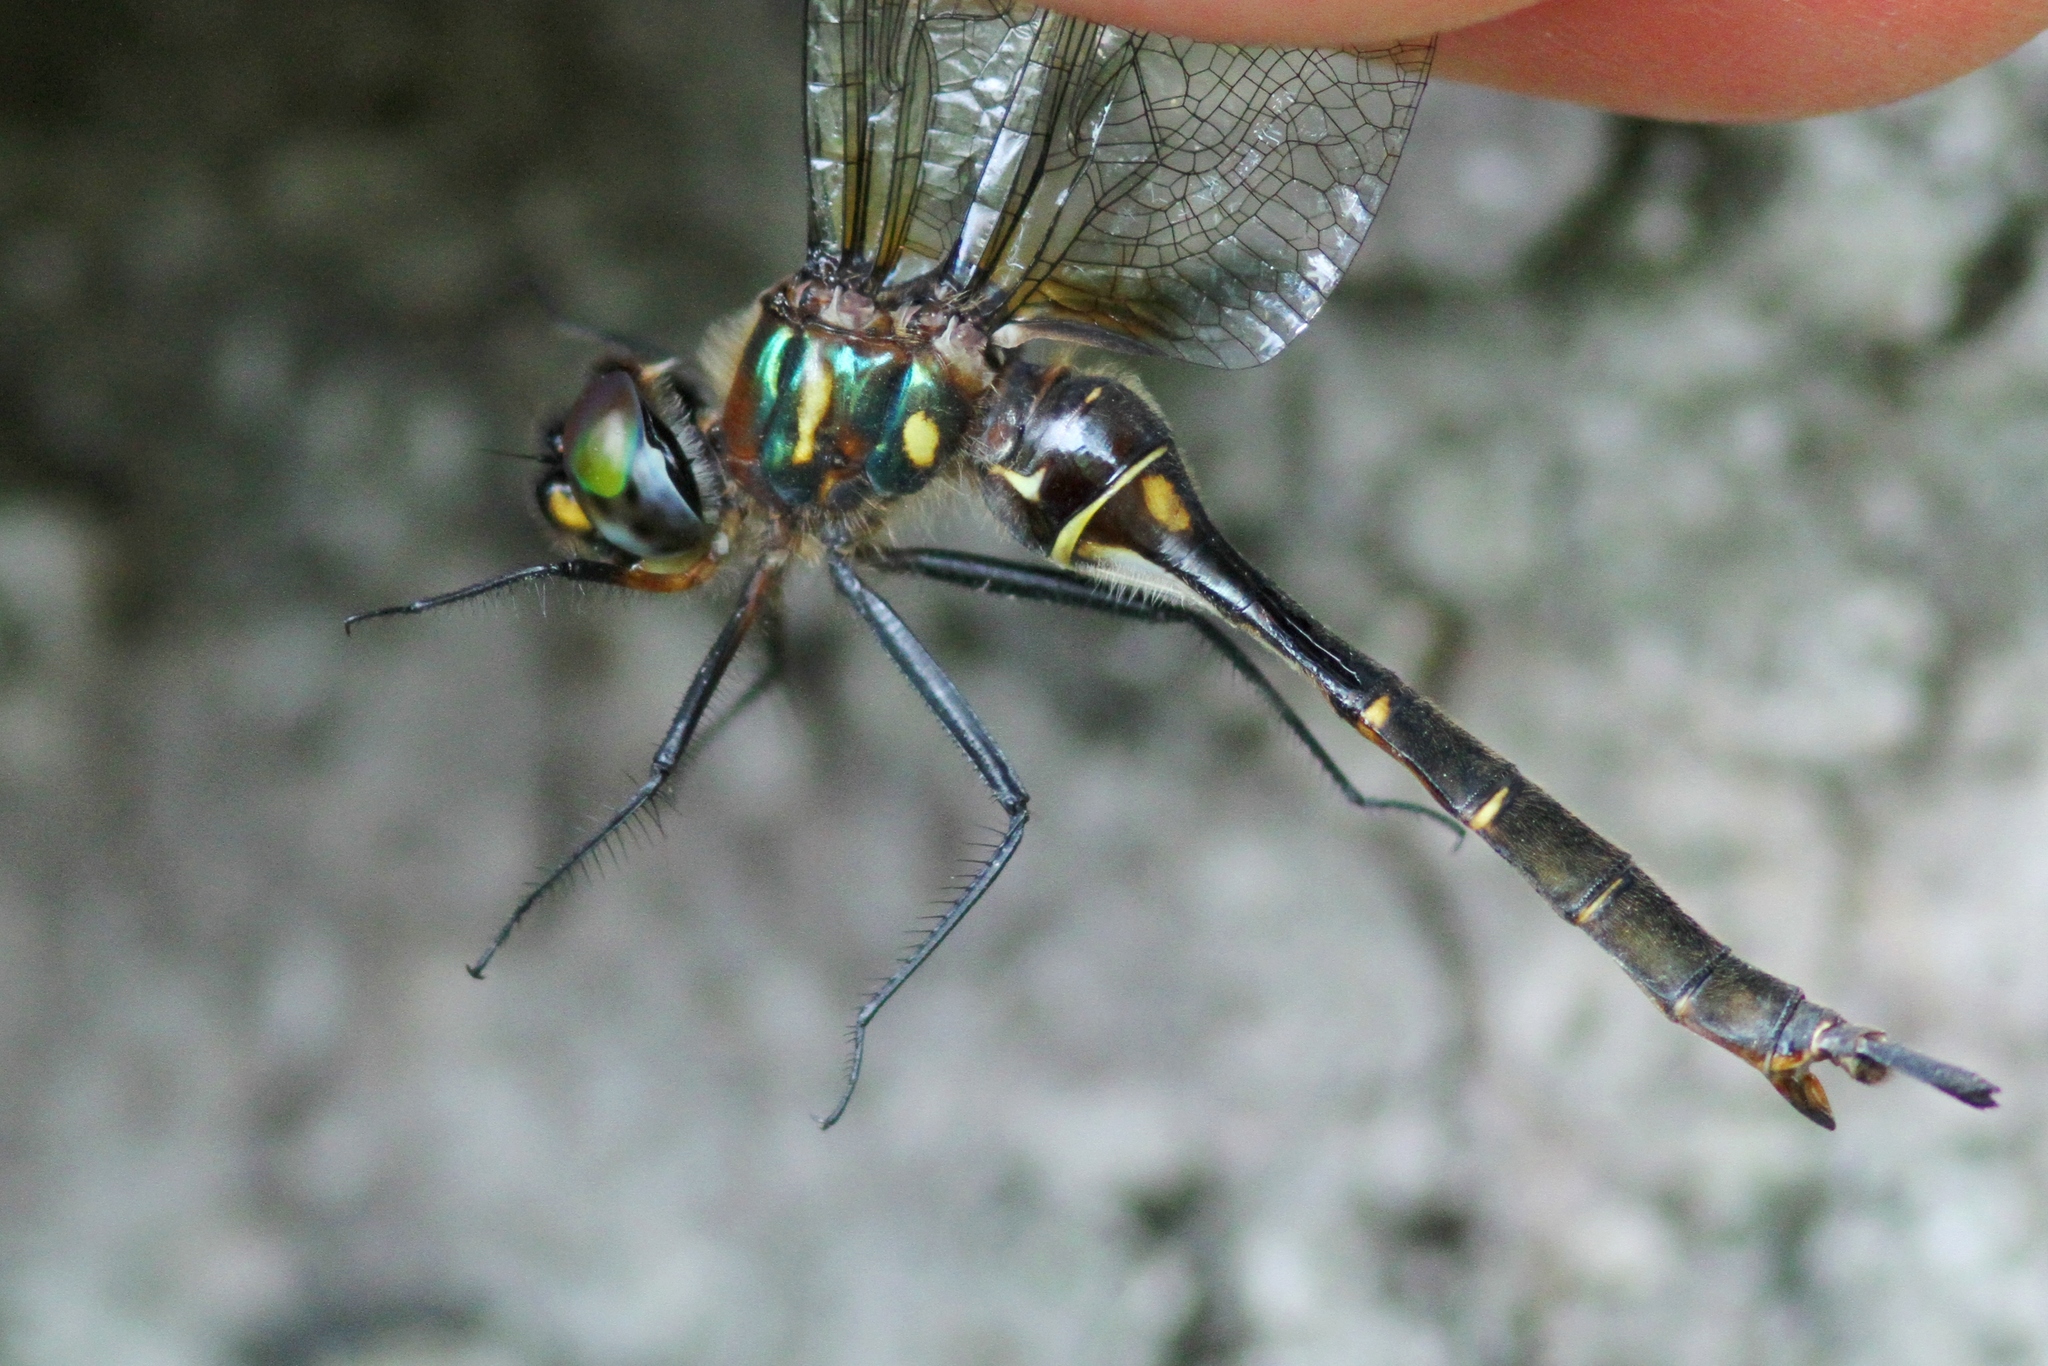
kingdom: Animalia
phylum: Arthropoda
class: Insecta
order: Odonata
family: Corduliidae
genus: Somatochlora
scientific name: Somatochlora walshii
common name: Brush-tipped emerald
